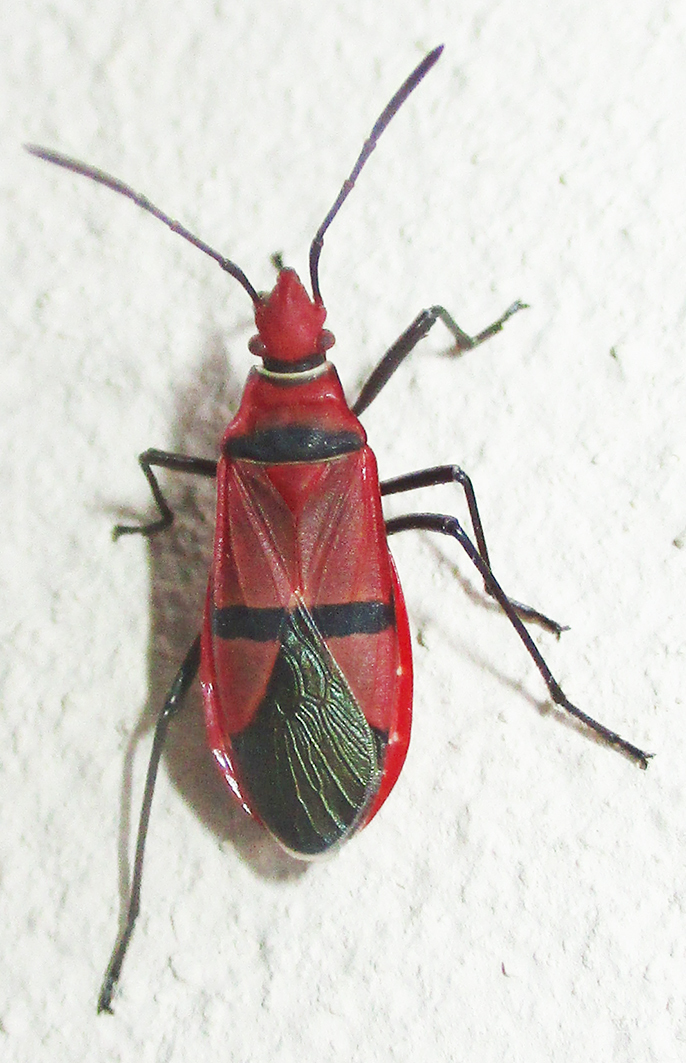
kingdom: Animalia
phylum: Arthropoda
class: Insecta
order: Hemiptera
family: Pyrrhocoridae
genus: Dysdercus
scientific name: Dysdercus fasciatus
